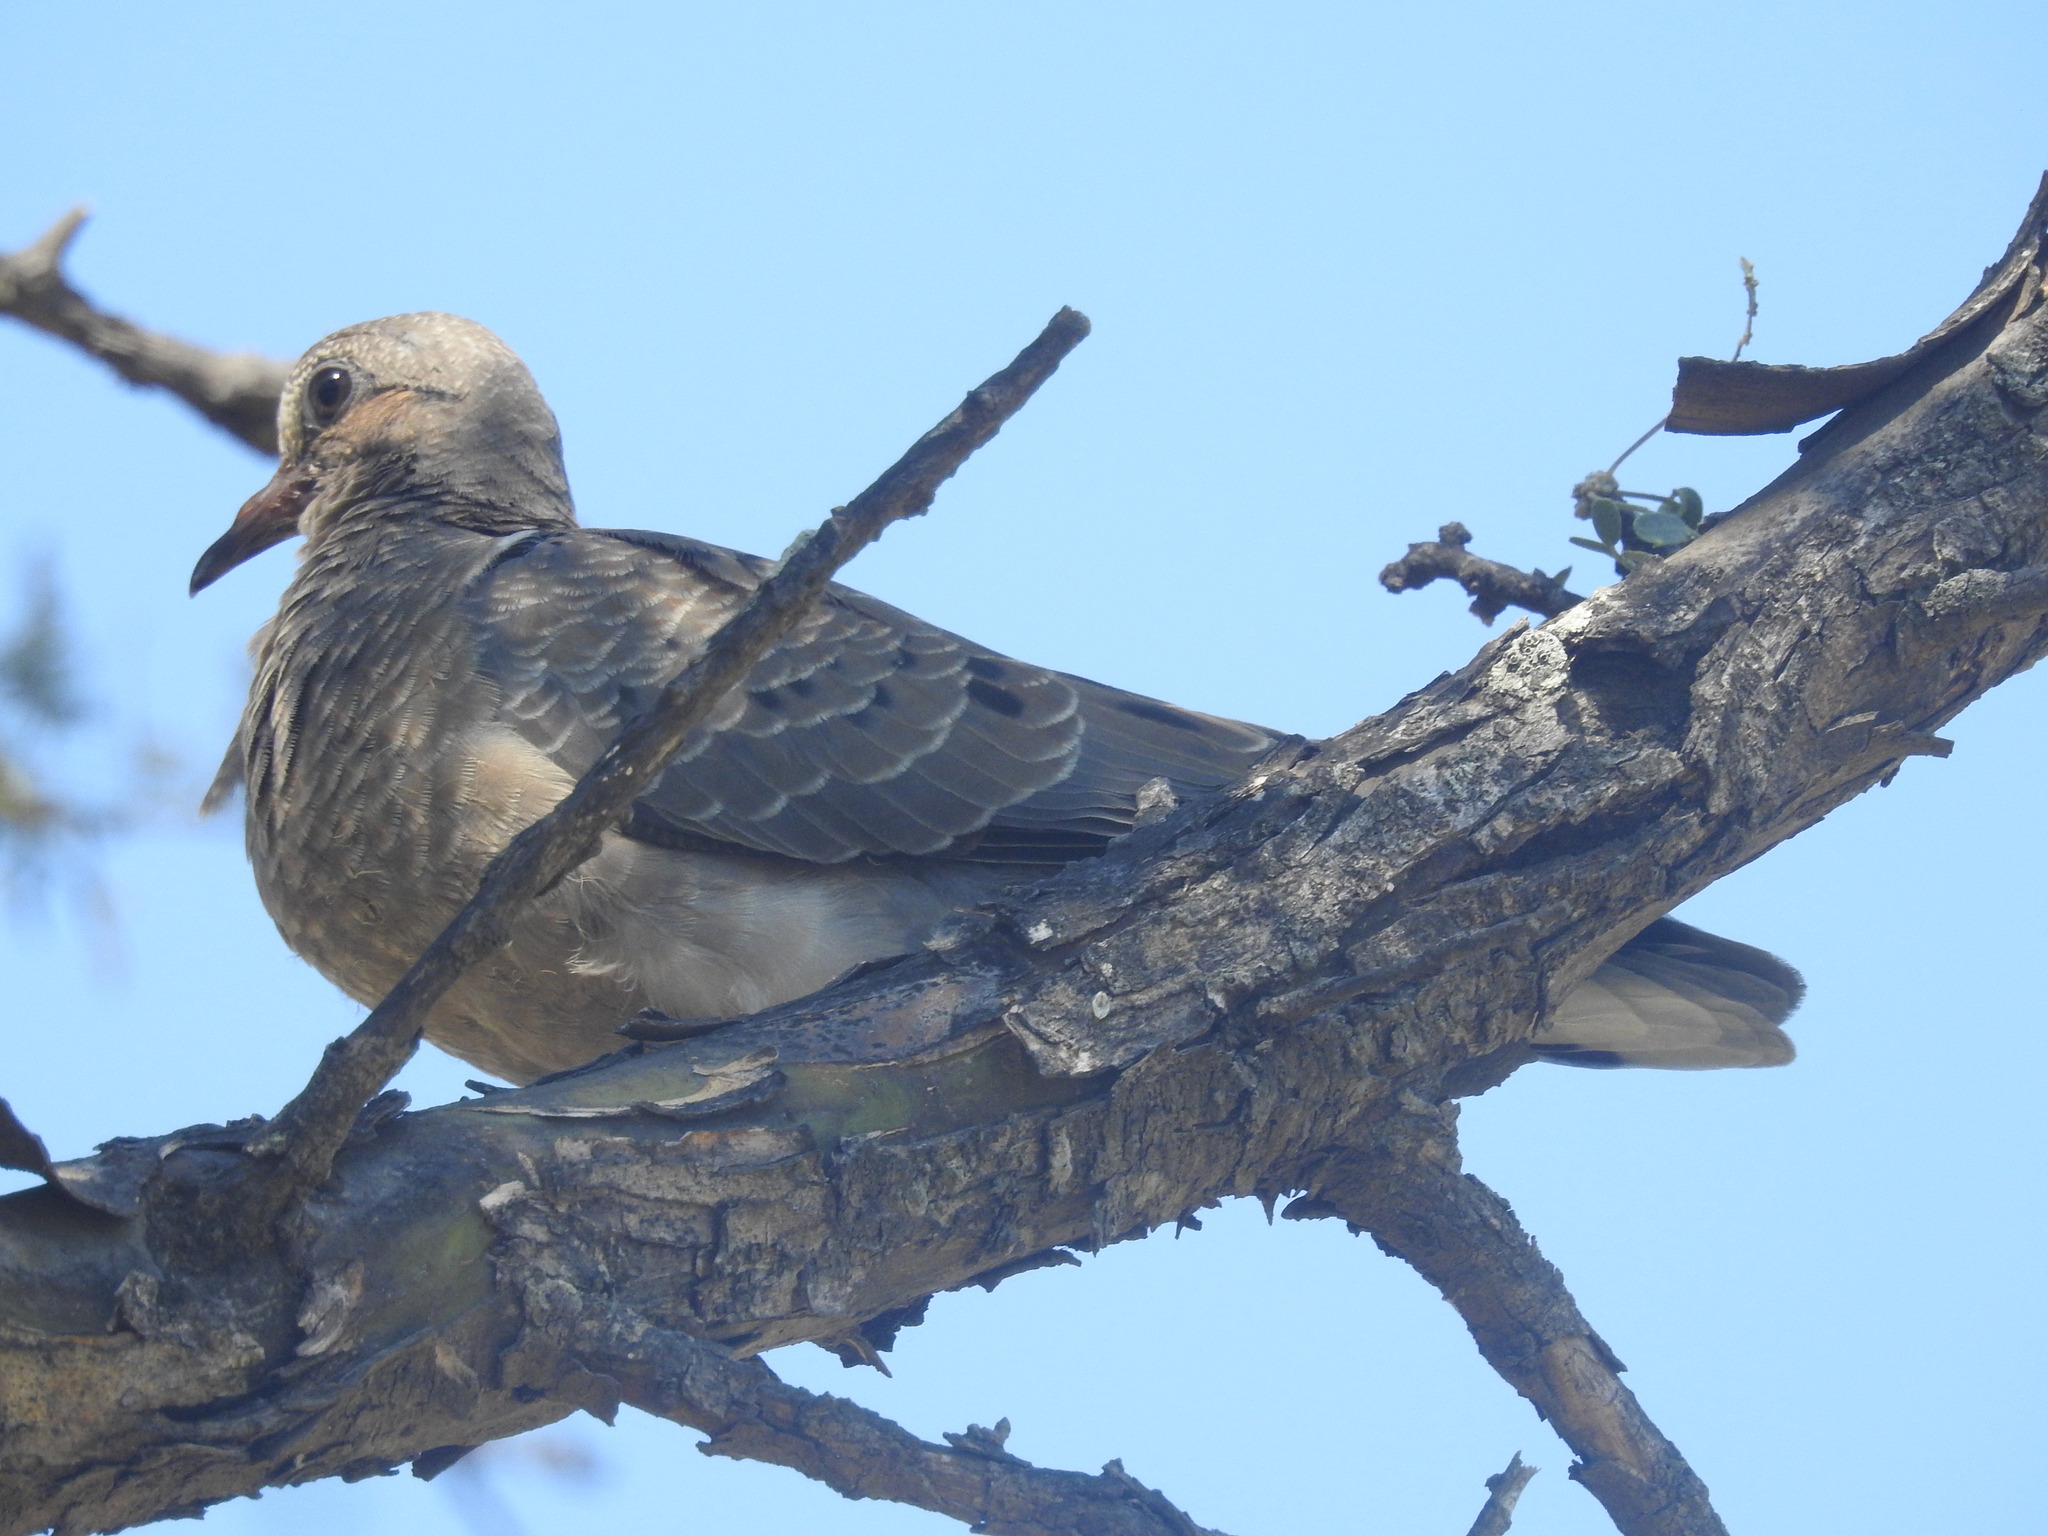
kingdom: Animalia
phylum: Chordata
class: Aves
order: Columbiformes
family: Columbidae
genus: Zenaida
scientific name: Zenaida auriculata
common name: Eared dove
